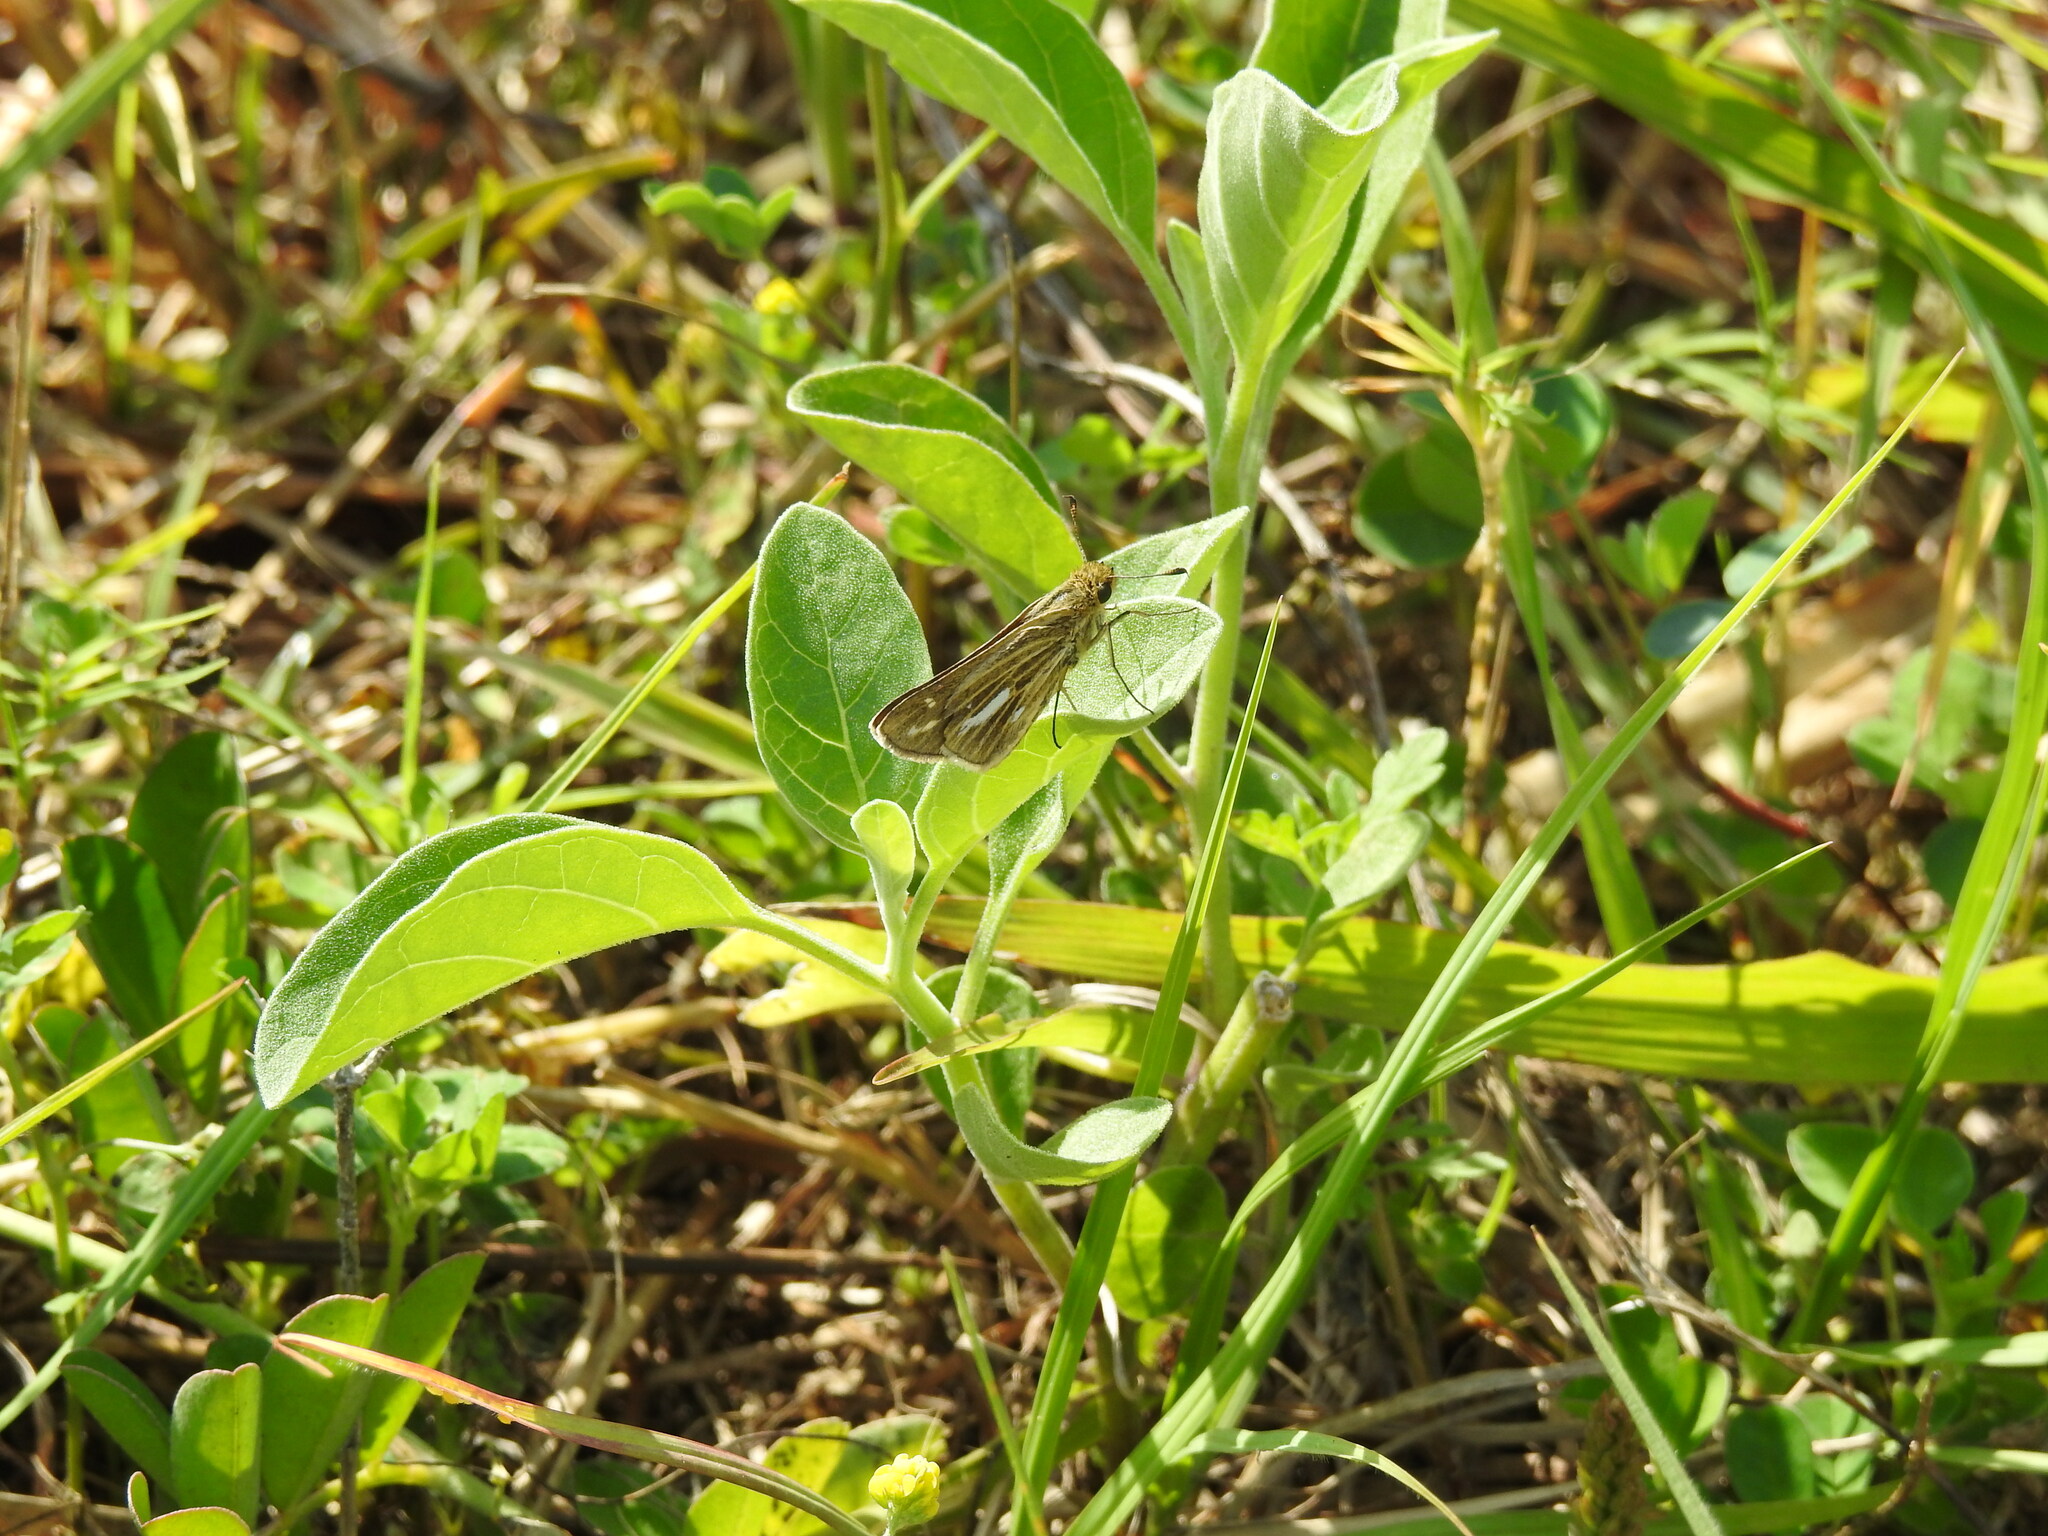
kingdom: Animalia
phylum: Arthropoda
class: Insecta
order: Lepidoptera
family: Hesperiidae
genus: Panoquina
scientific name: Panoquina panoquin
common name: Salt marsh skipper
